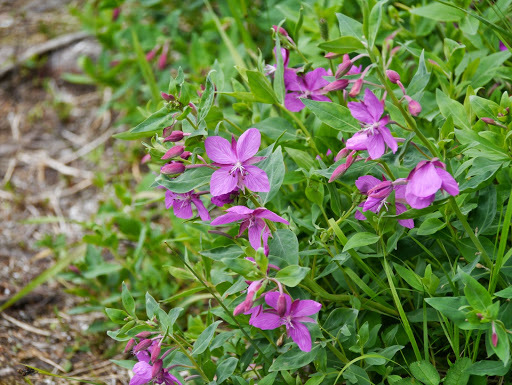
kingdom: Plantae
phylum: Tracheophyta
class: Magnoliopsida
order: Myrtales
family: Onagraceae
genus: Chamaenerion
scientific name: Chamaenerion latifolium
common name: Dwarf fireweed
